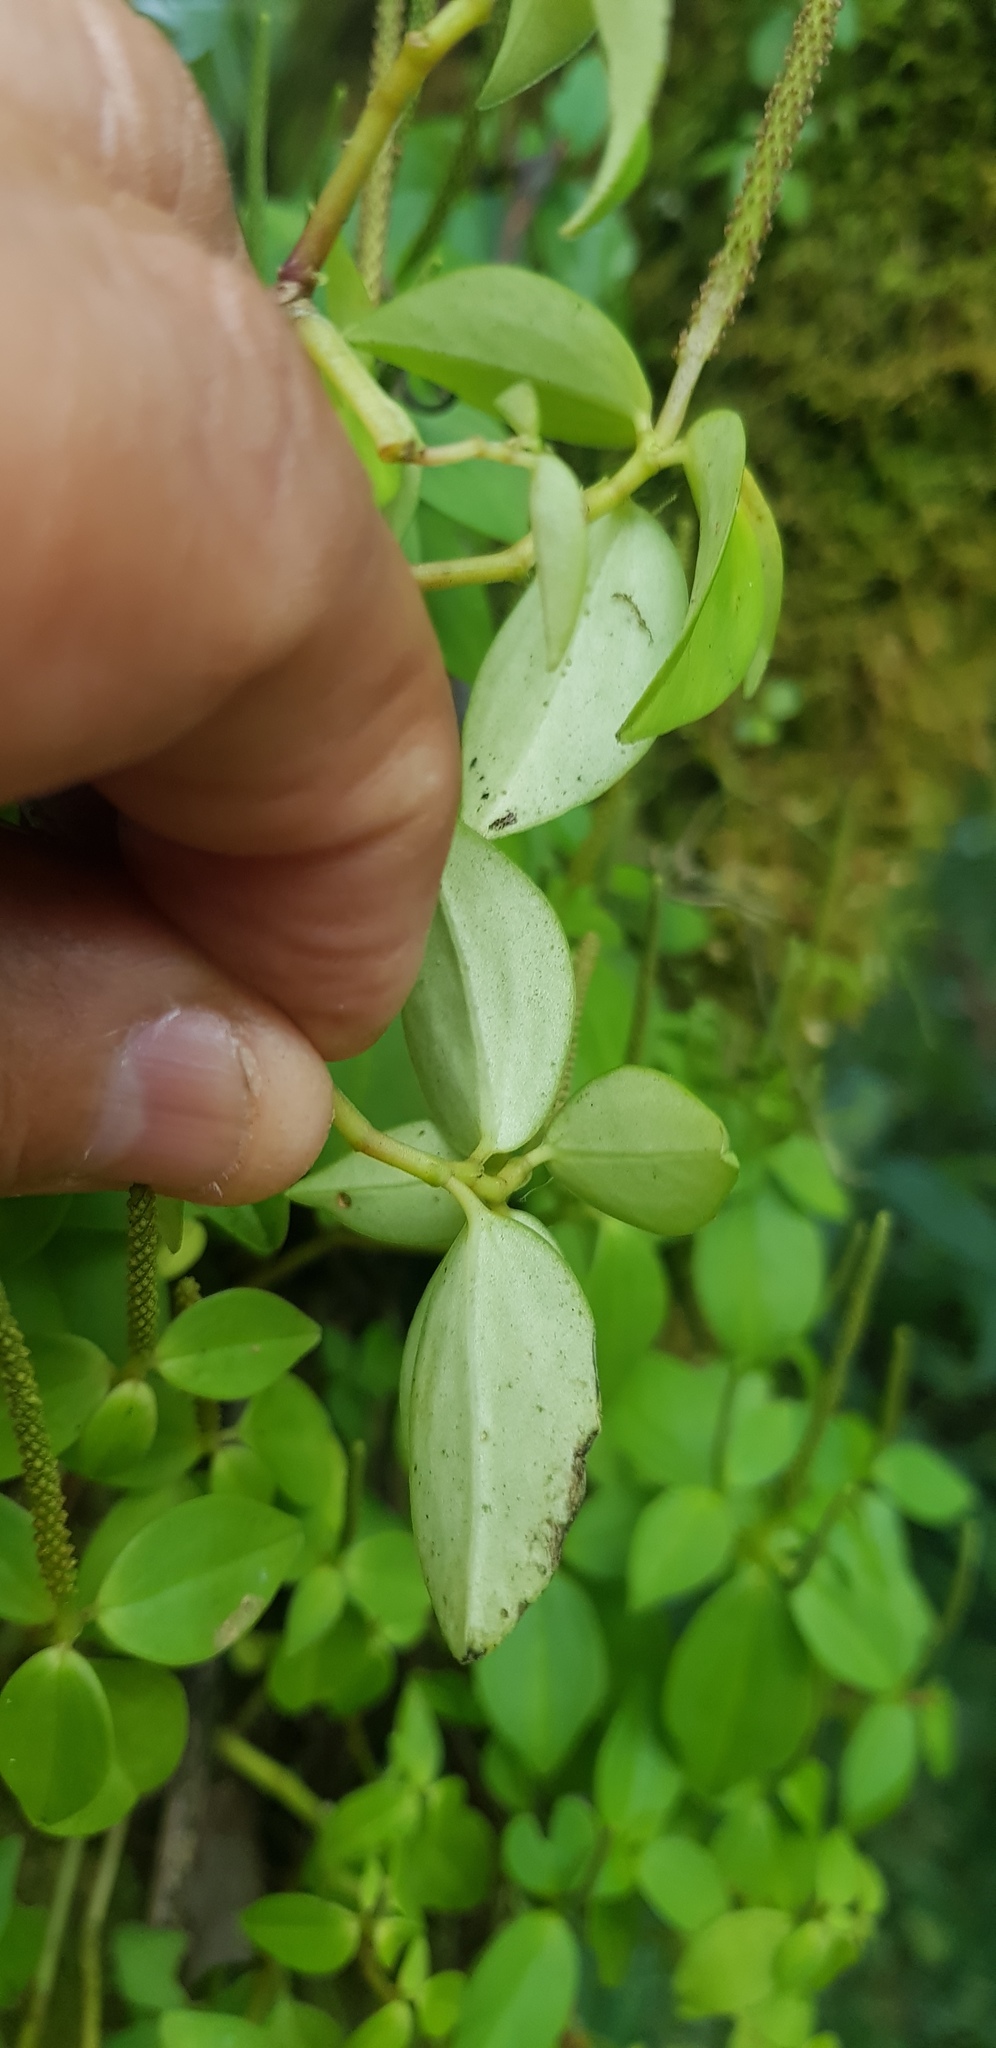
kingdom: Plantae
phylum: Tracheophyta
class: Magnoliopsida
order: Piperales
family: Piperaceae
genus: Peperomia
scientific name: Peperomia glabella
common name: Cypress peperomia
